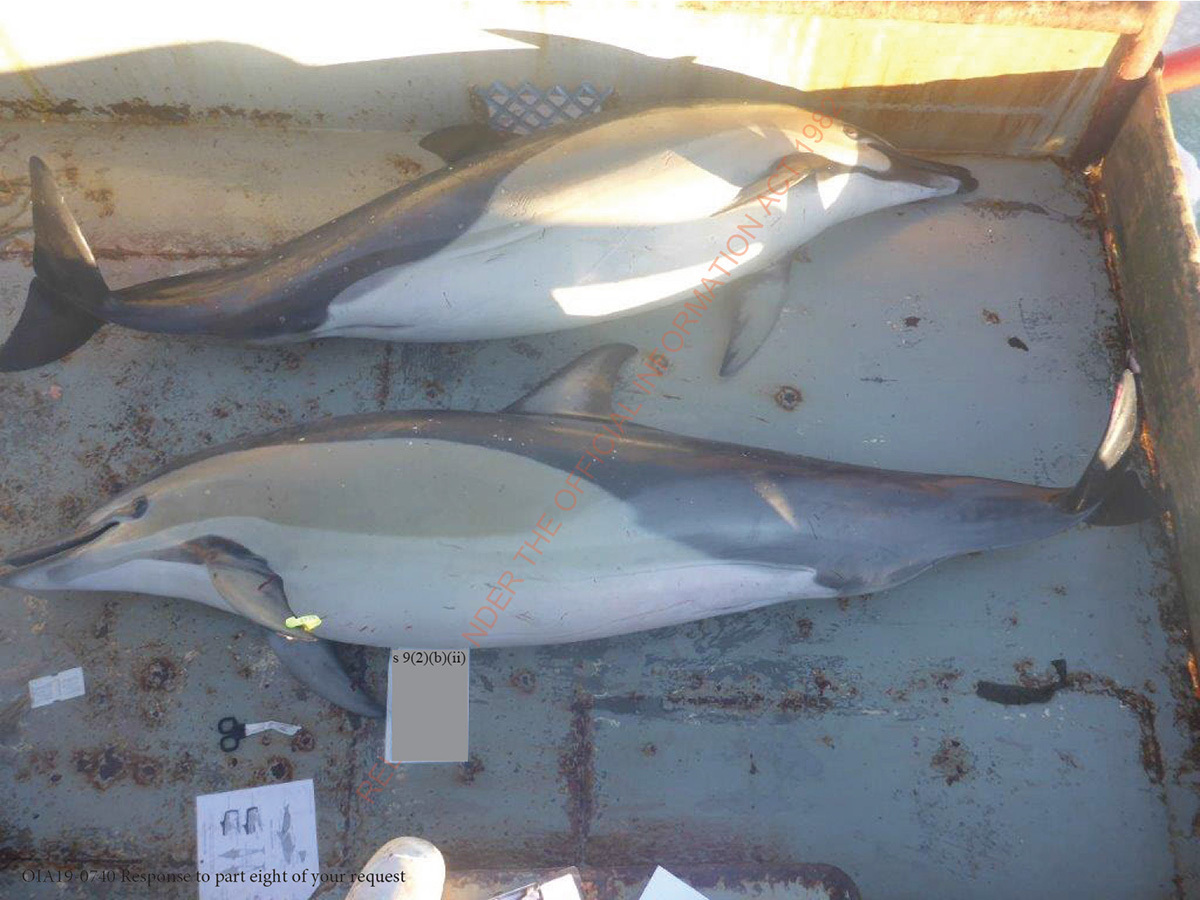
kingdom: Animalia
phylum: Chordata
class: Mammalia
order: Cetacea
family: Delphinidae
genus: Delphinus
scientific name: Delphinus delphis
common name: Common dolphin
